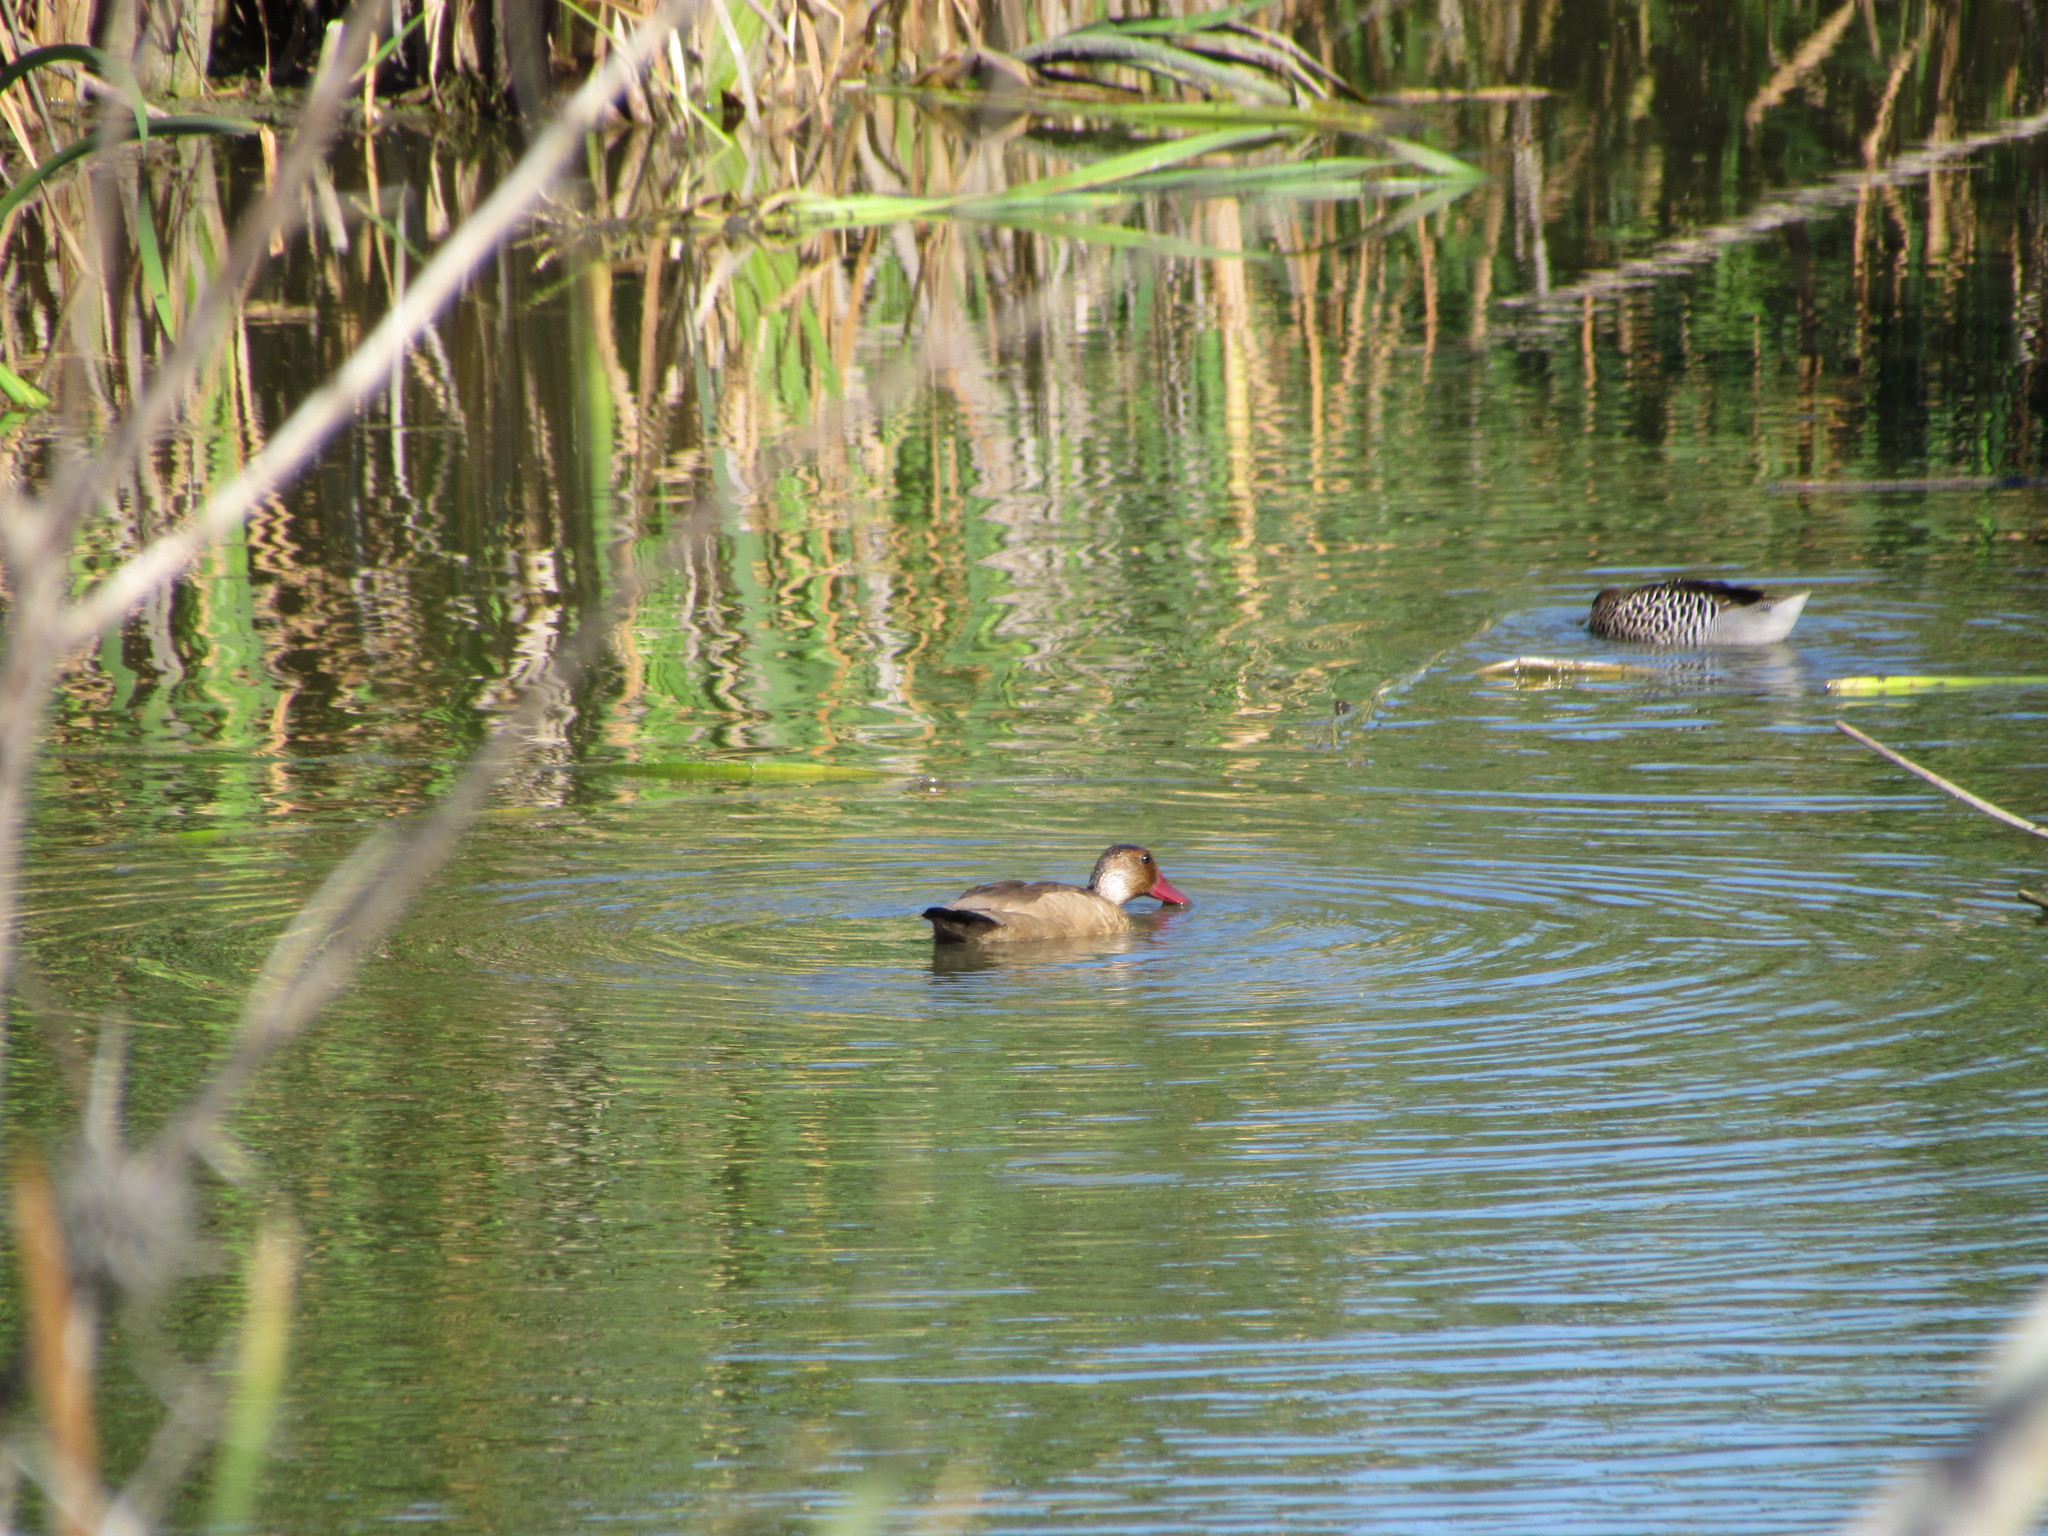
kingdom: Animalia
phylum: Chordata
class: Aves
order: Anseriformes
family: Anatidae
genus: Amazonetta
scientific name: Amazonetta brasiliensis
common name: Brazilian teal
